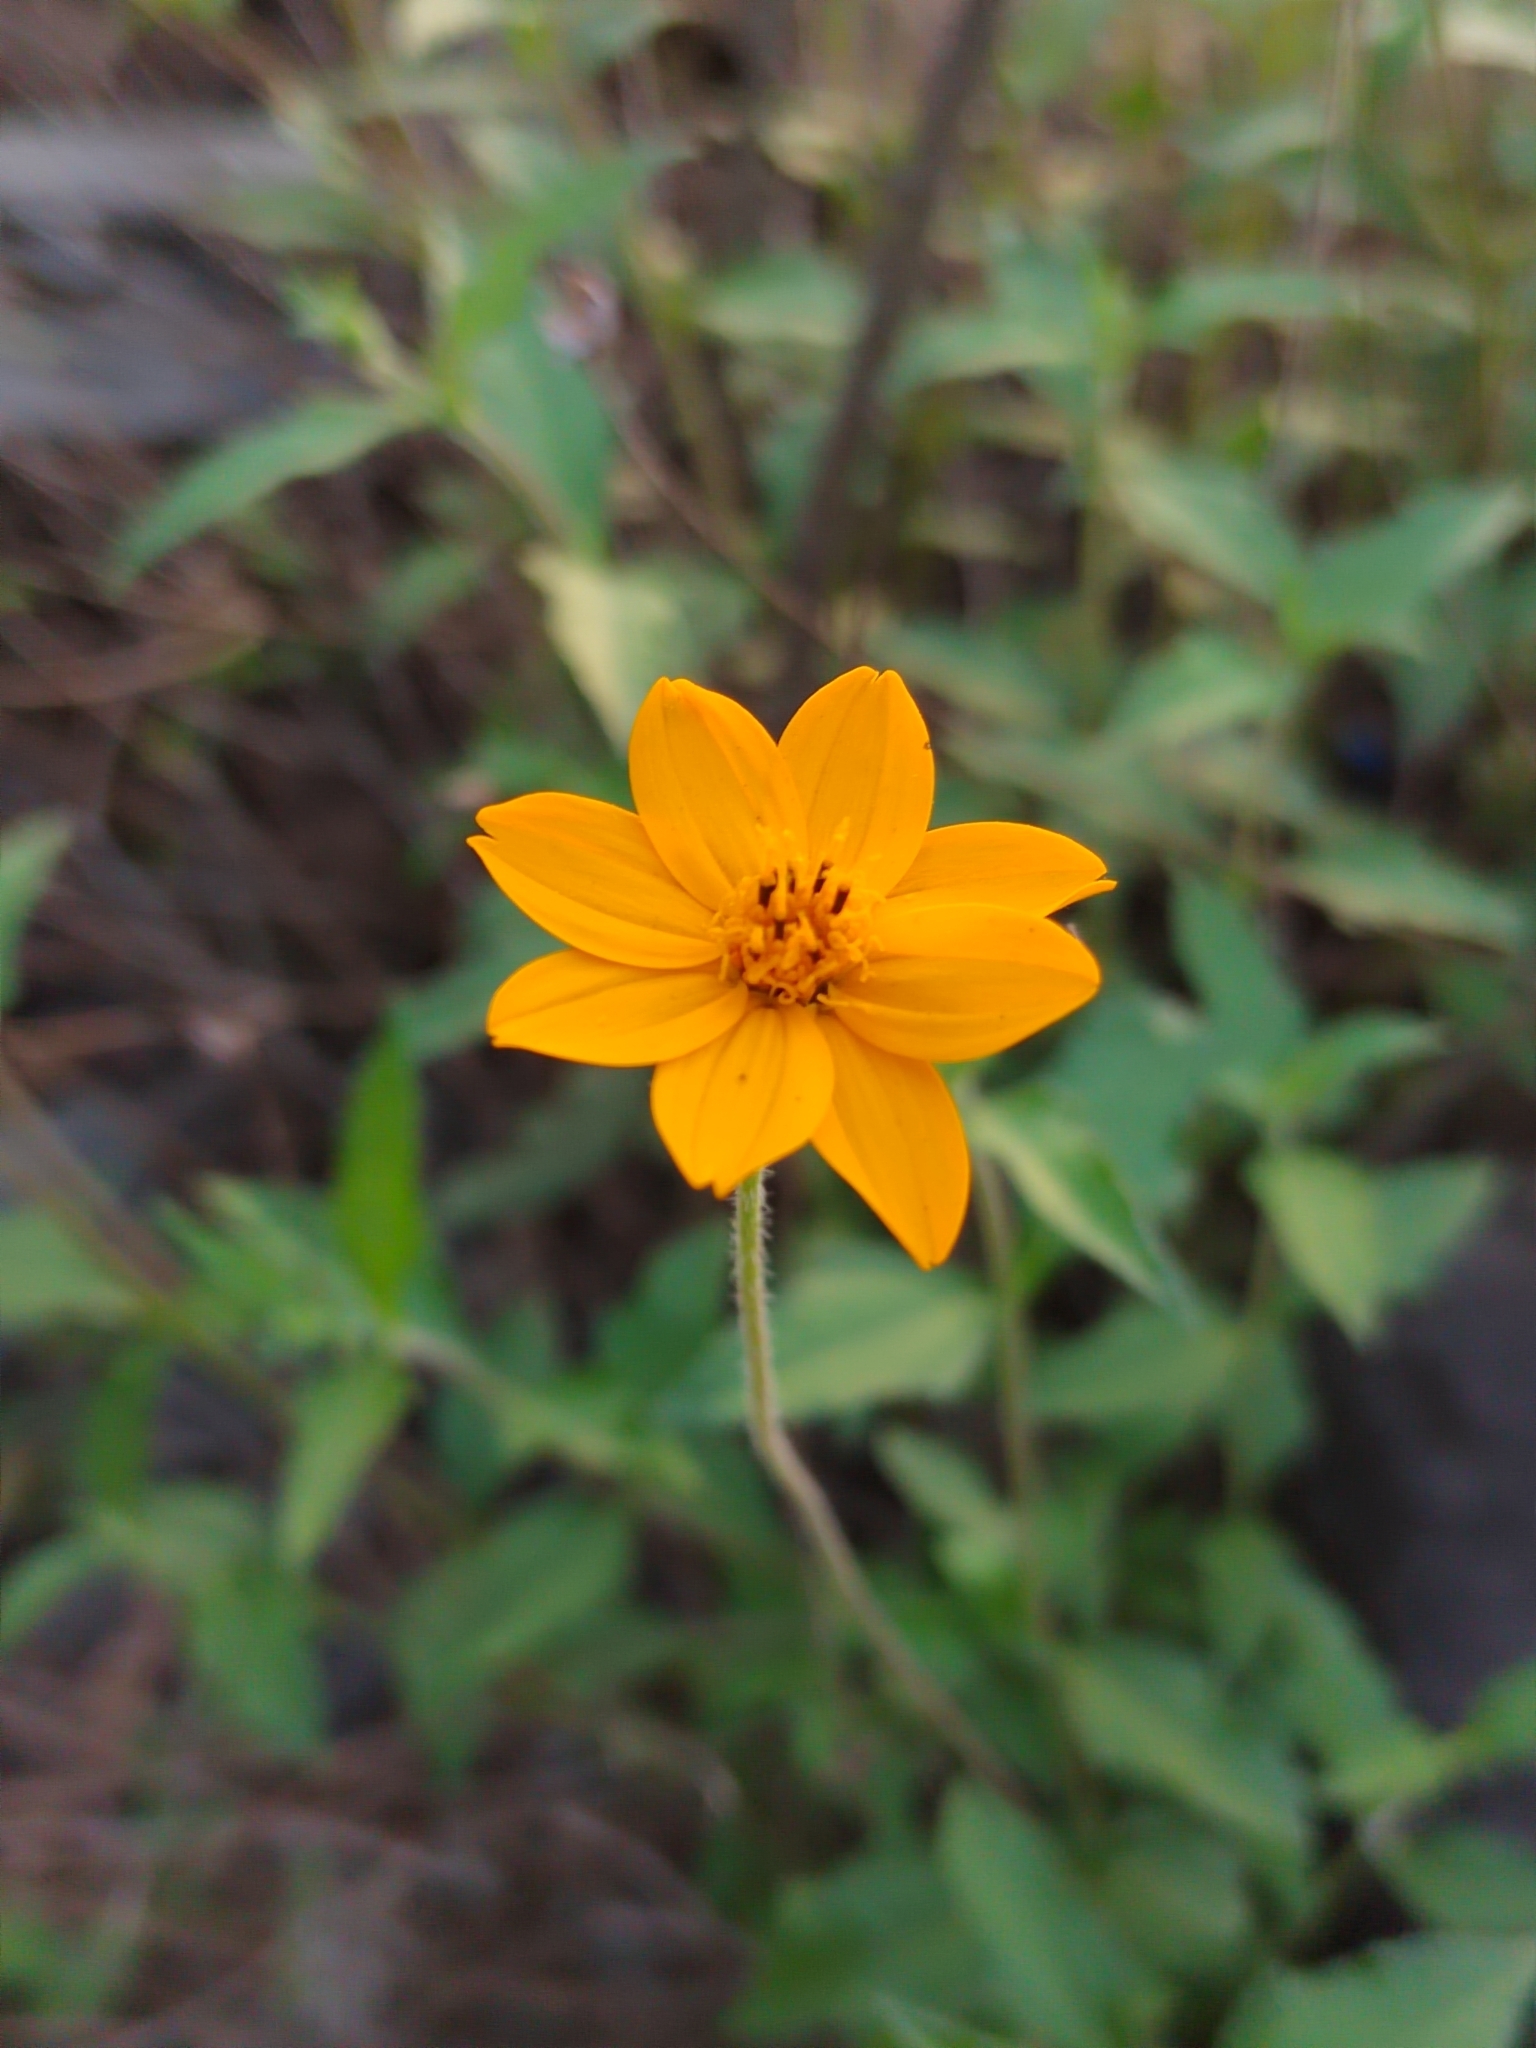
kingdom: Plantae
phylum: Tracheophyta
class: Magnoliopsida
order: Asterales
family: Asteraceae
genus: Wedelia
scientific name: Wedelia acapulcensis
